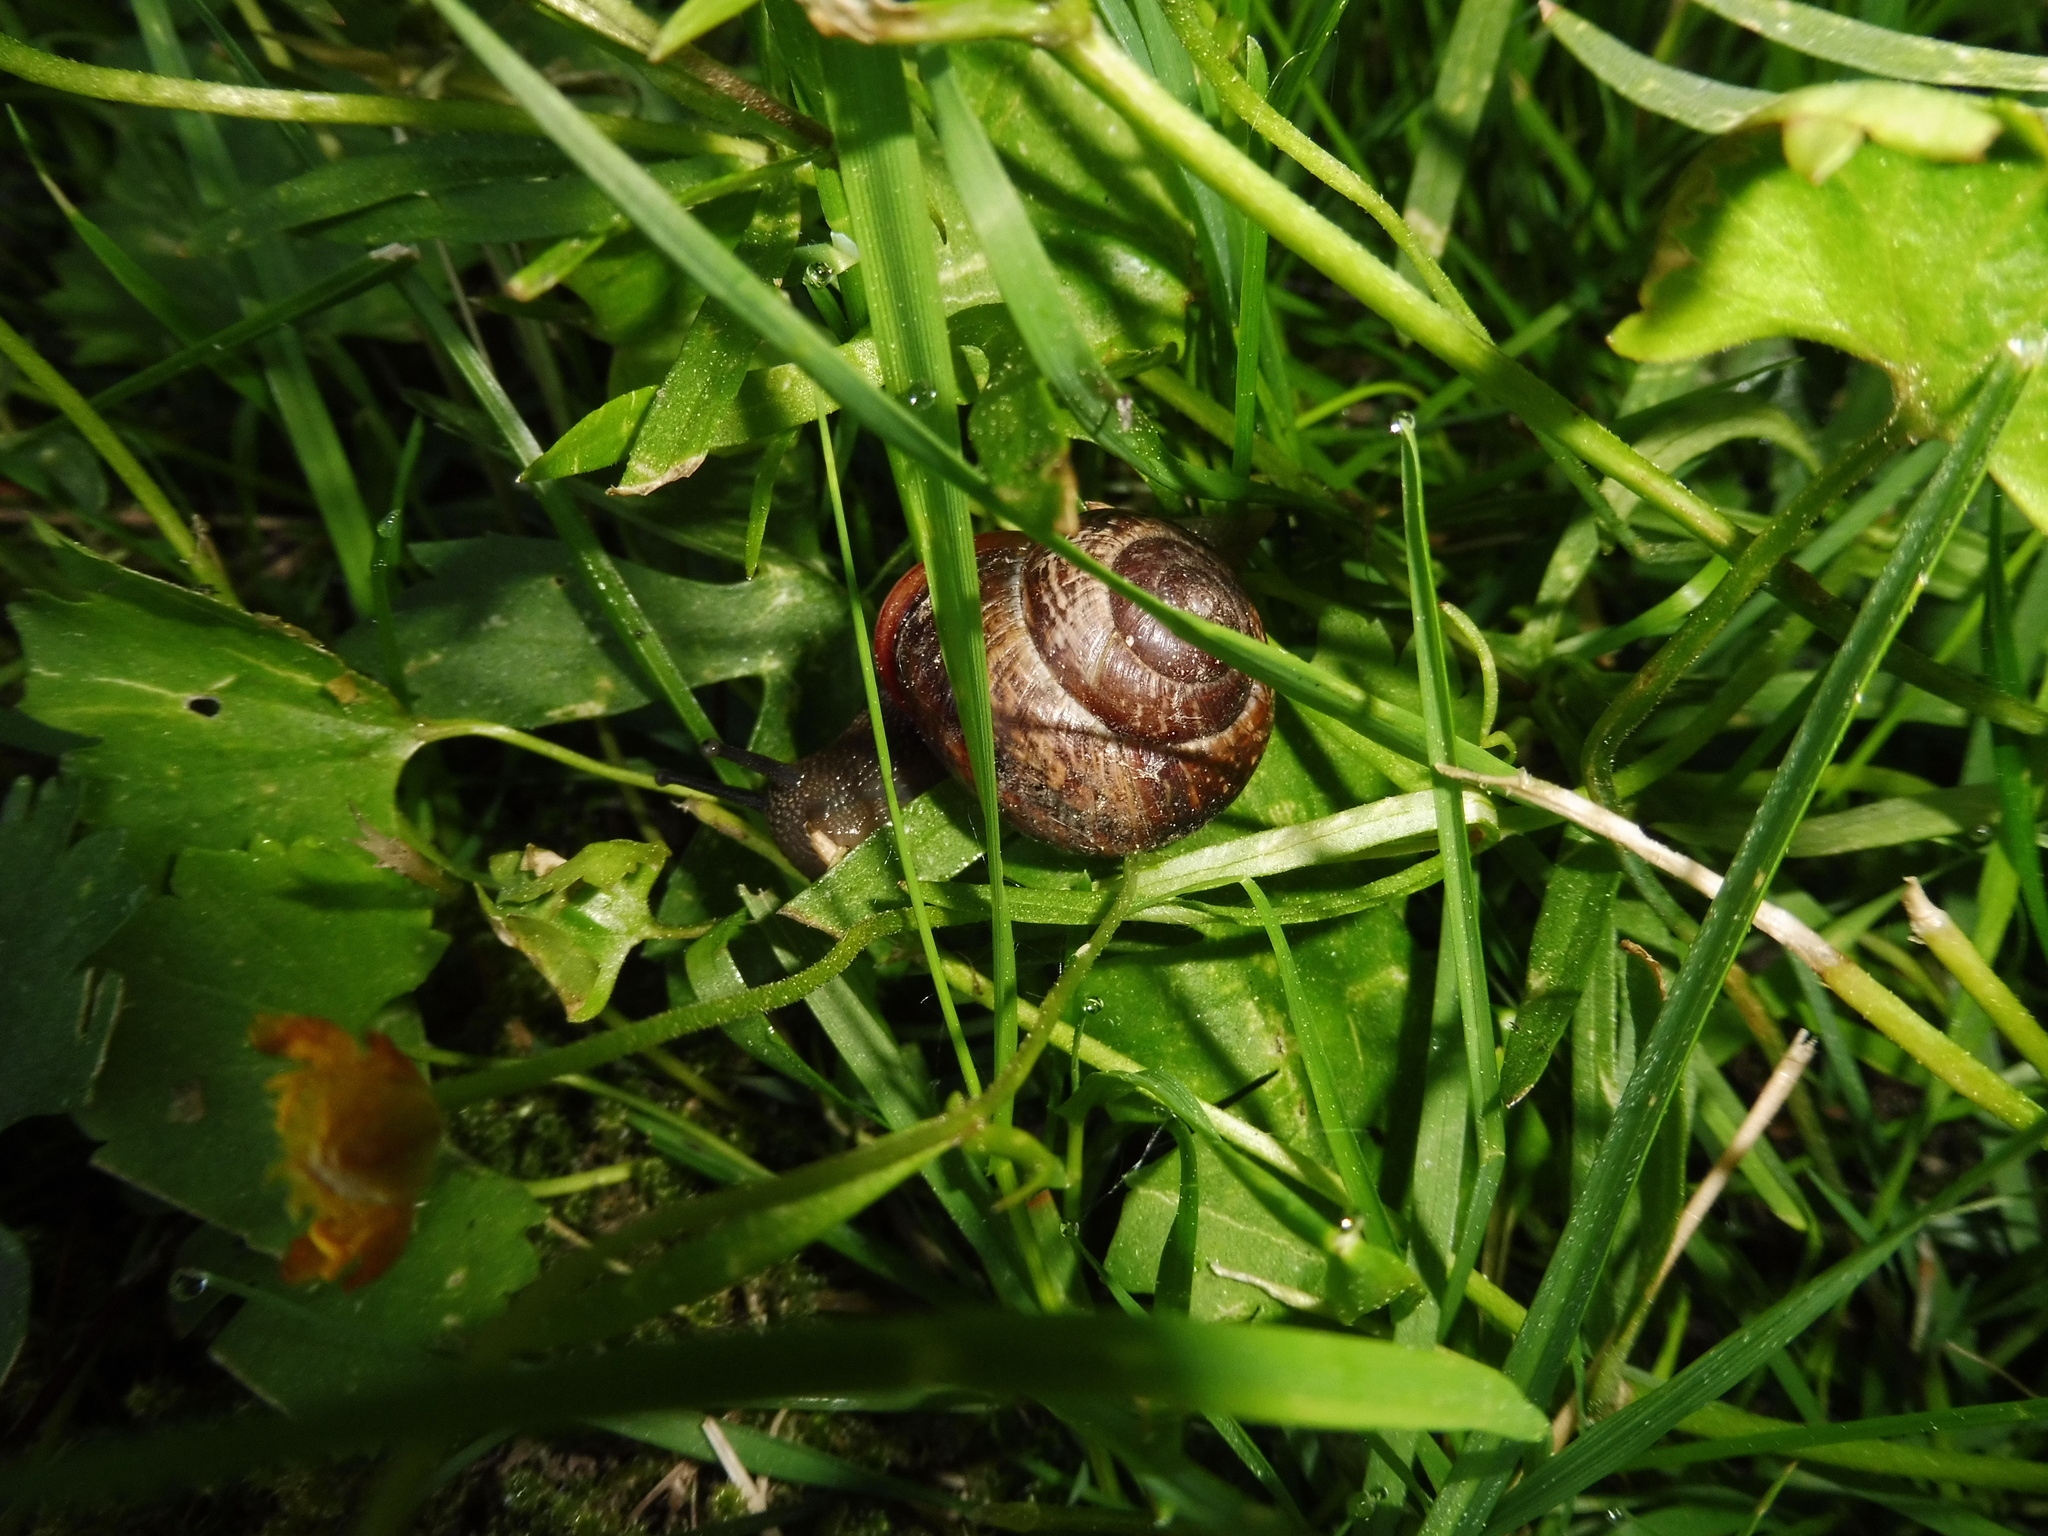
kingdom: Animalia
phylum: Mollusca
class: Gastropoda
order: Stylommatophora
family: Helicidae
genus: Arianta
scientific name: Arianta arbustorum
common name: Copse snail
